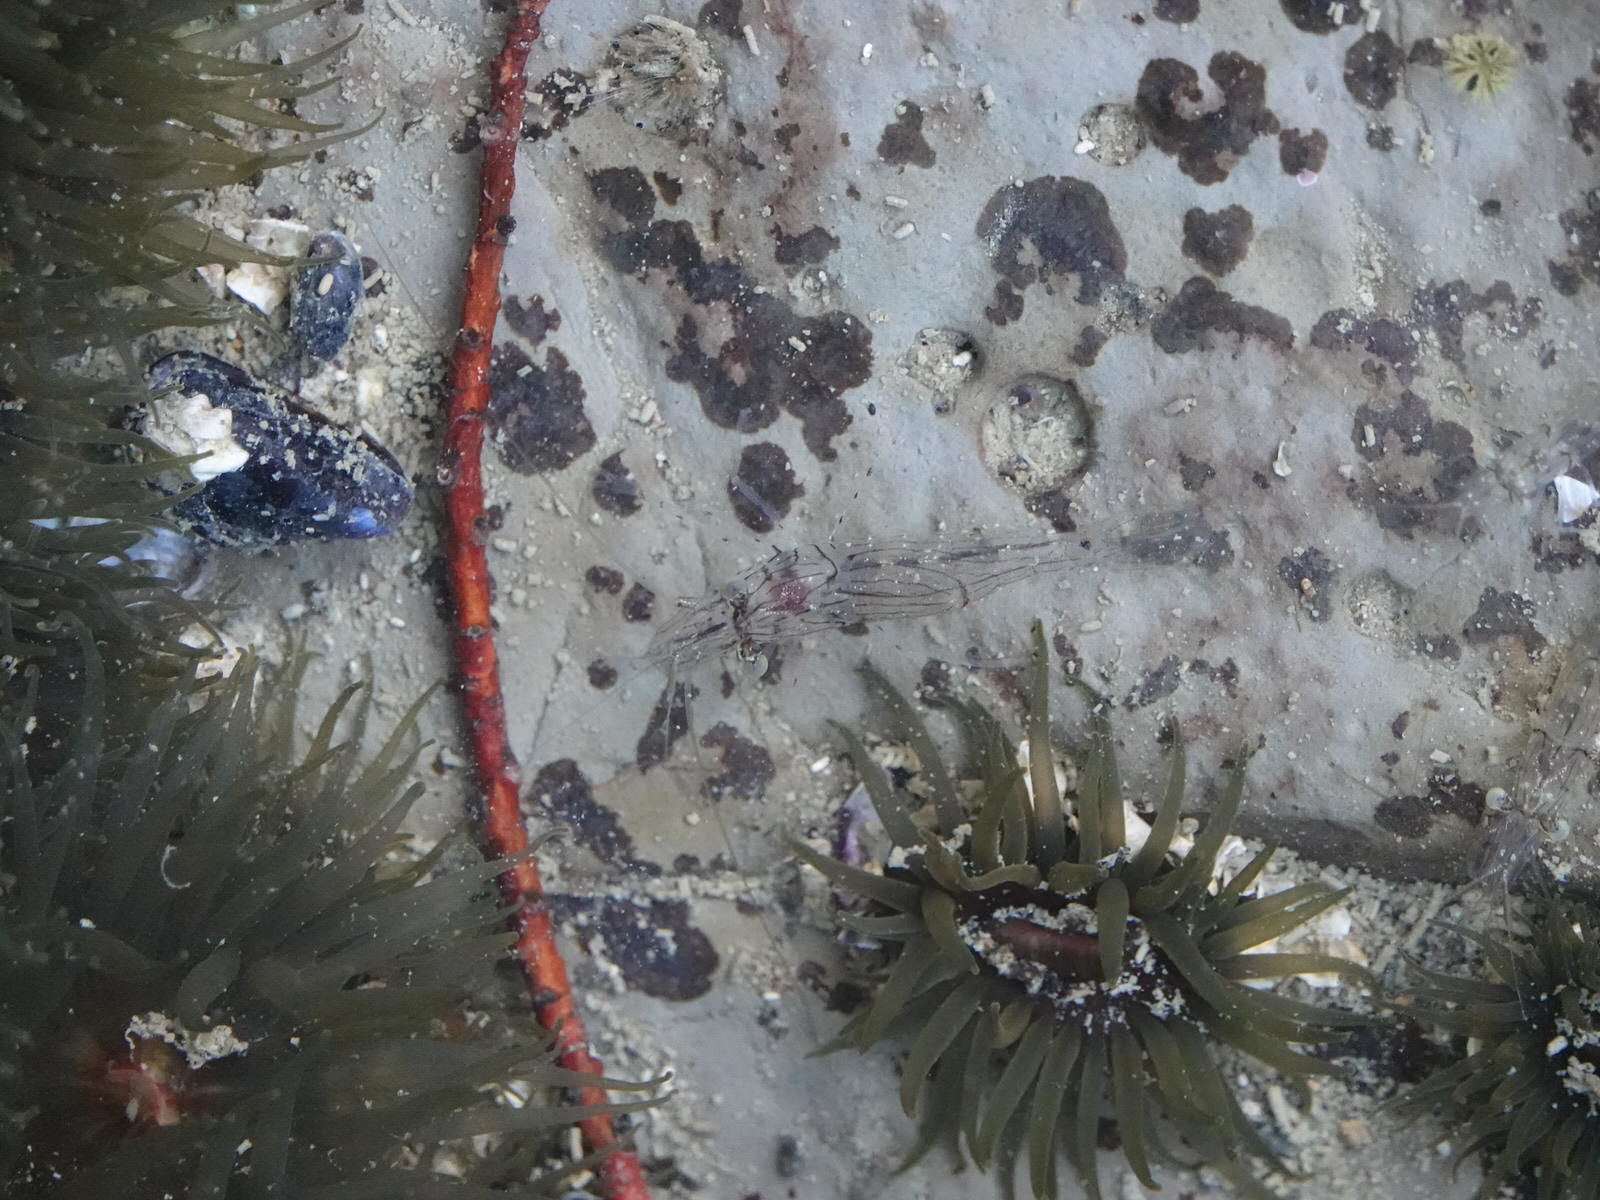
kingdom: Animalia
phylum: Arthropoda
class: Malacostraca
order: Decapoda
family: Palaemonidae
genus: Palaemon
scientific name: Palaemon affinis
